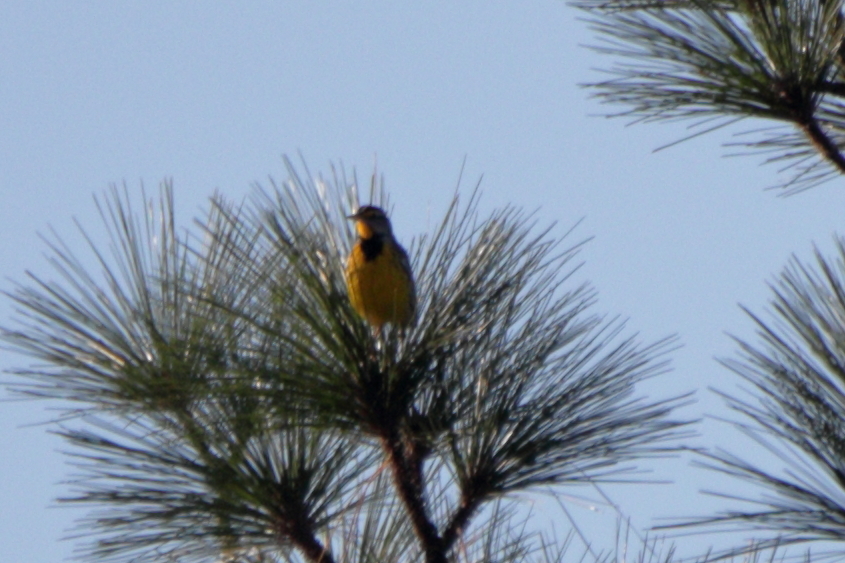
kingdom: Animalia
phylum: Chordata
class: Aves
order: Passeriformes
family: Icteridae
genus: Sturnella
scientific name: Sturnella magna
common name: Eastern meadowlark
